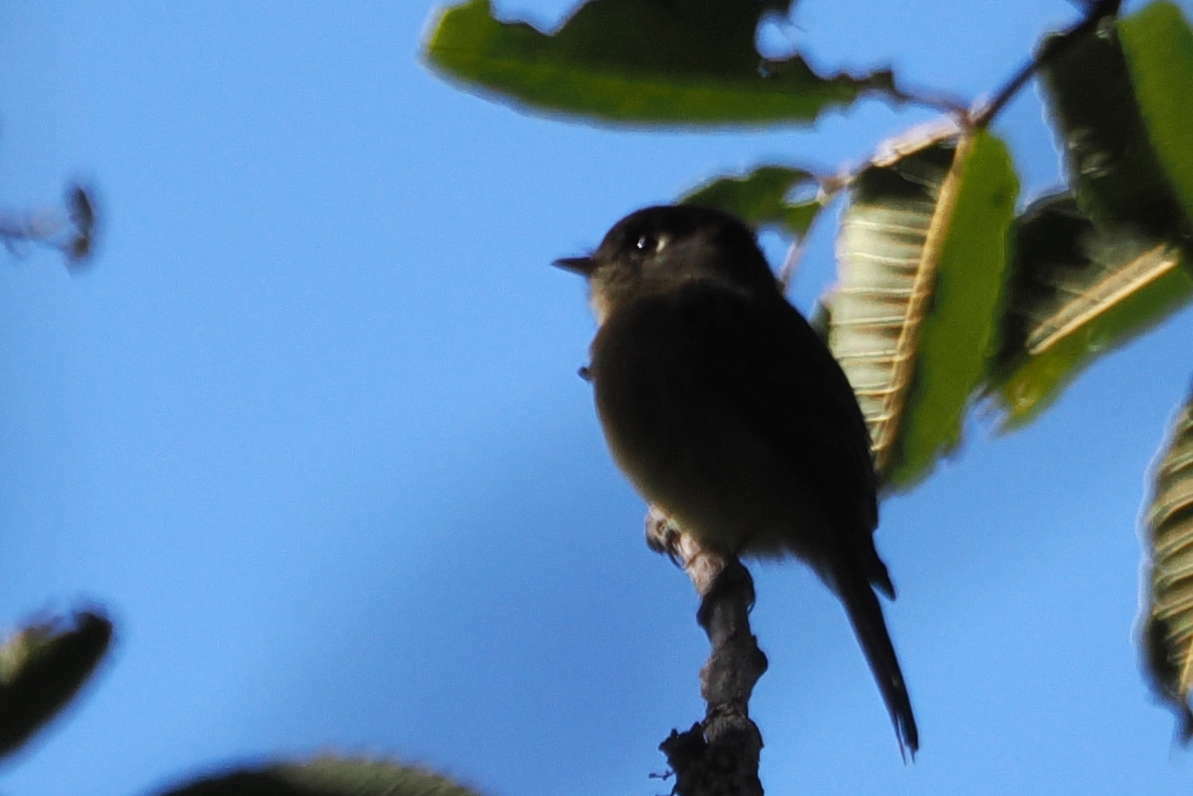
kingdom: Animalia
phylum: Chordata
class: Aves
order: Passeriformes
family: Tyrannidae
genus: Empidonax
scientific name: Empidonax atriceps
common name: Black-capped flycatcher
